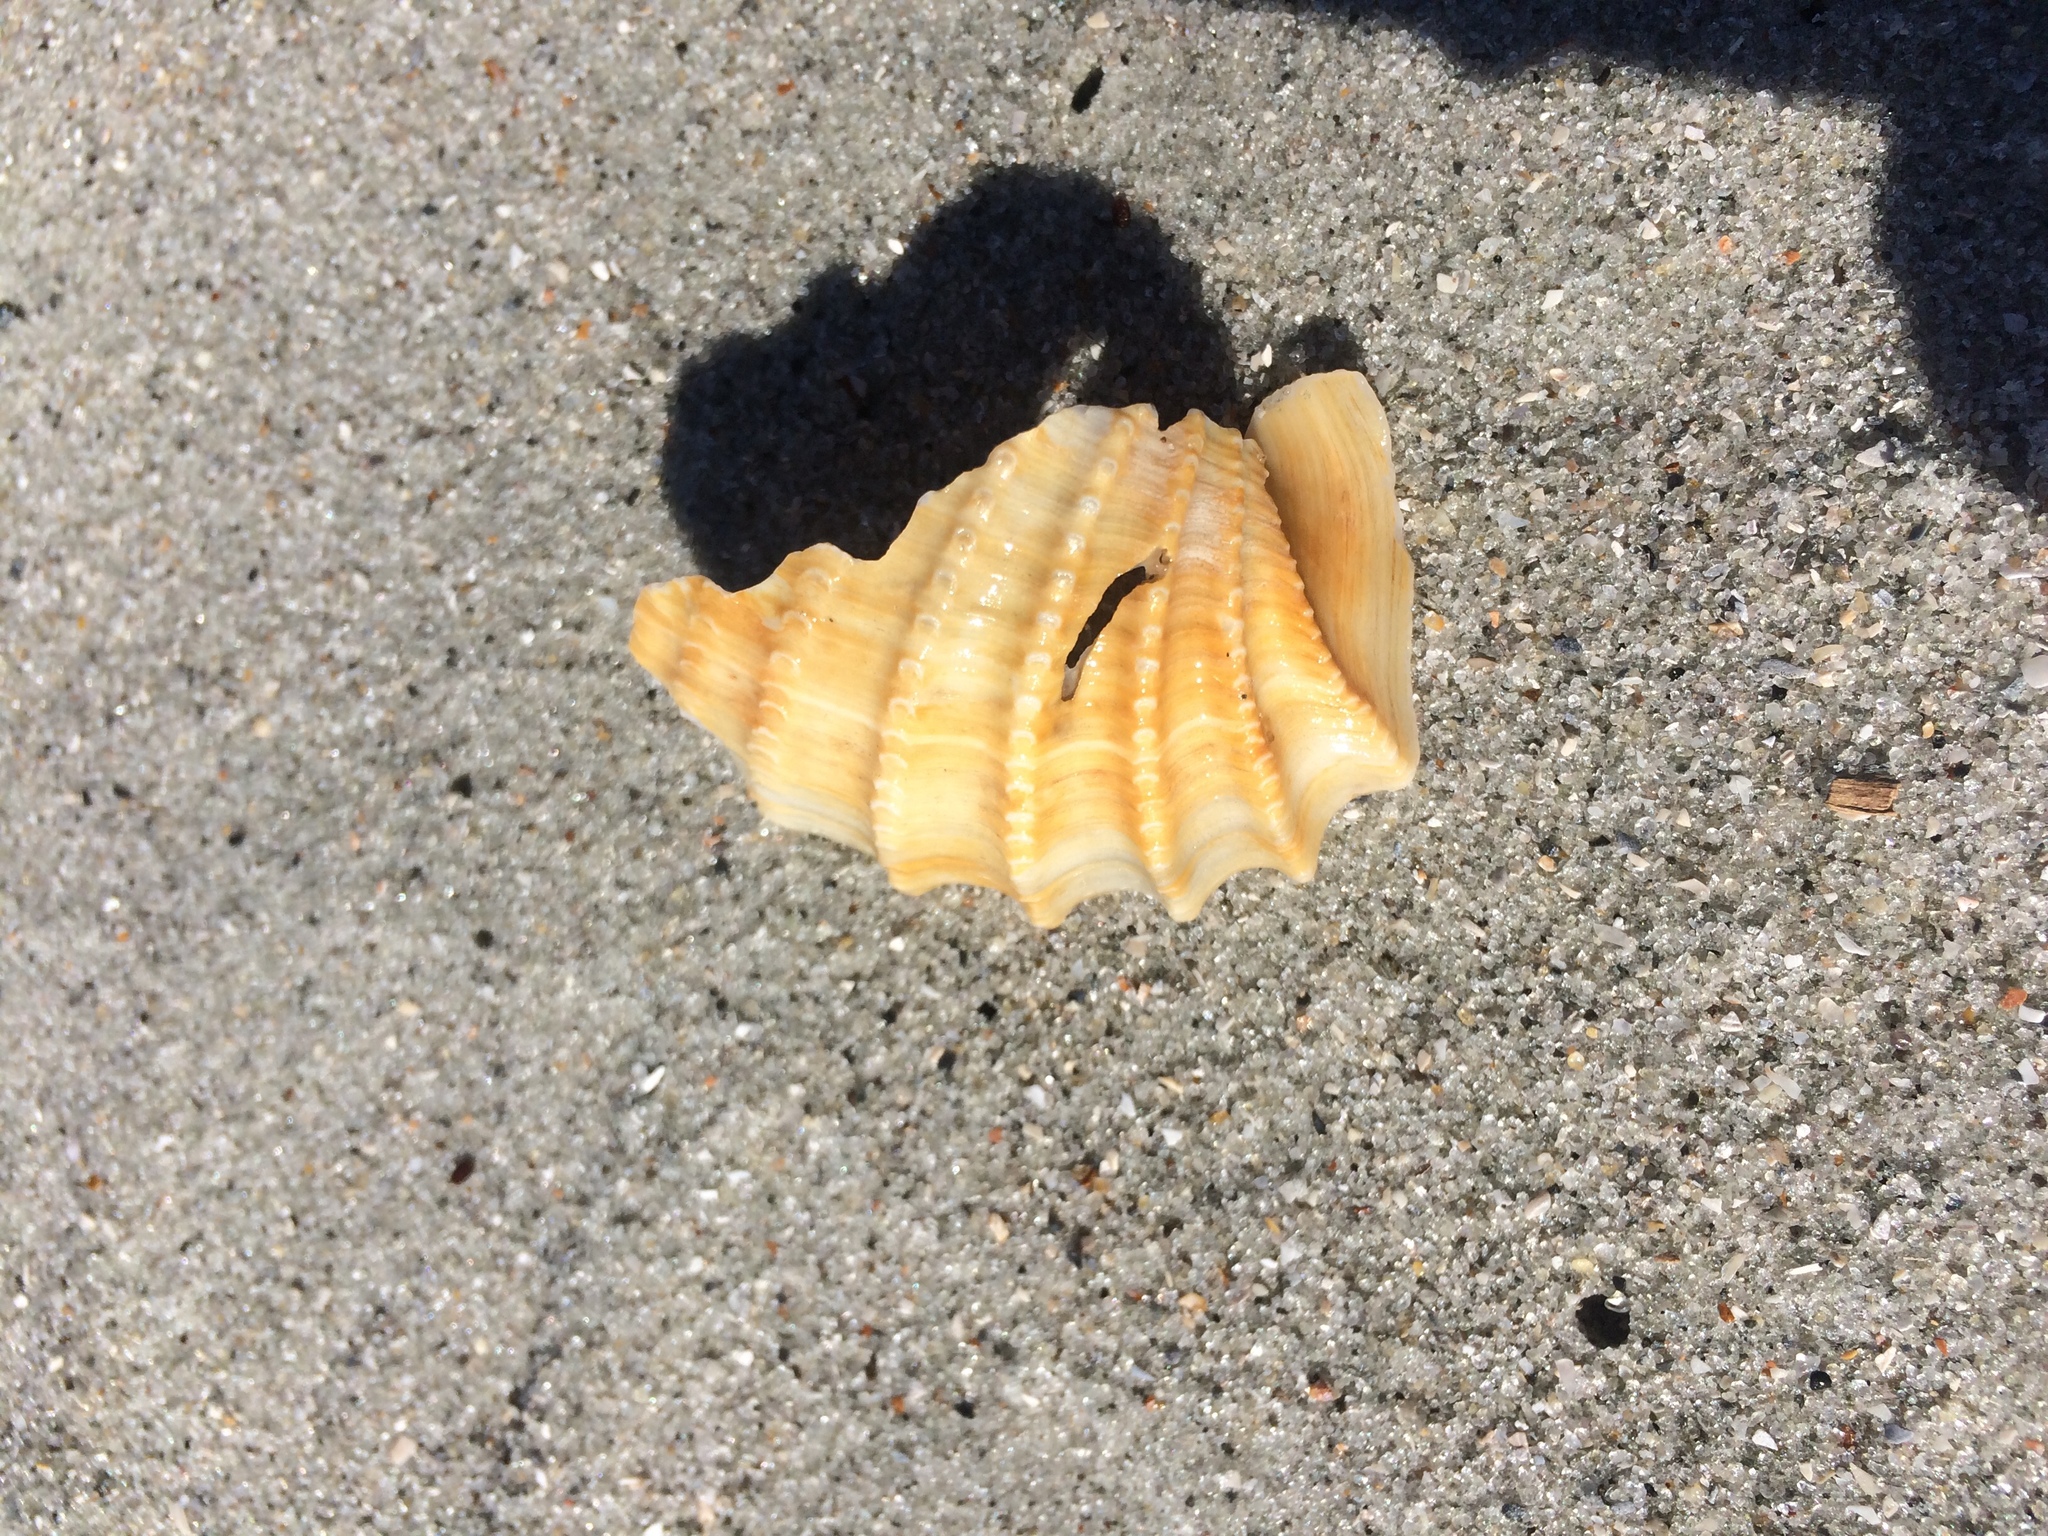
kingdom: Animalia
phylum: Mollusca
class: Bivalvia
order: Myida
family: Pholadidae
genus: Cyrtopleura
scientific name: Cyrtopleura costata
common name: Angel wing
